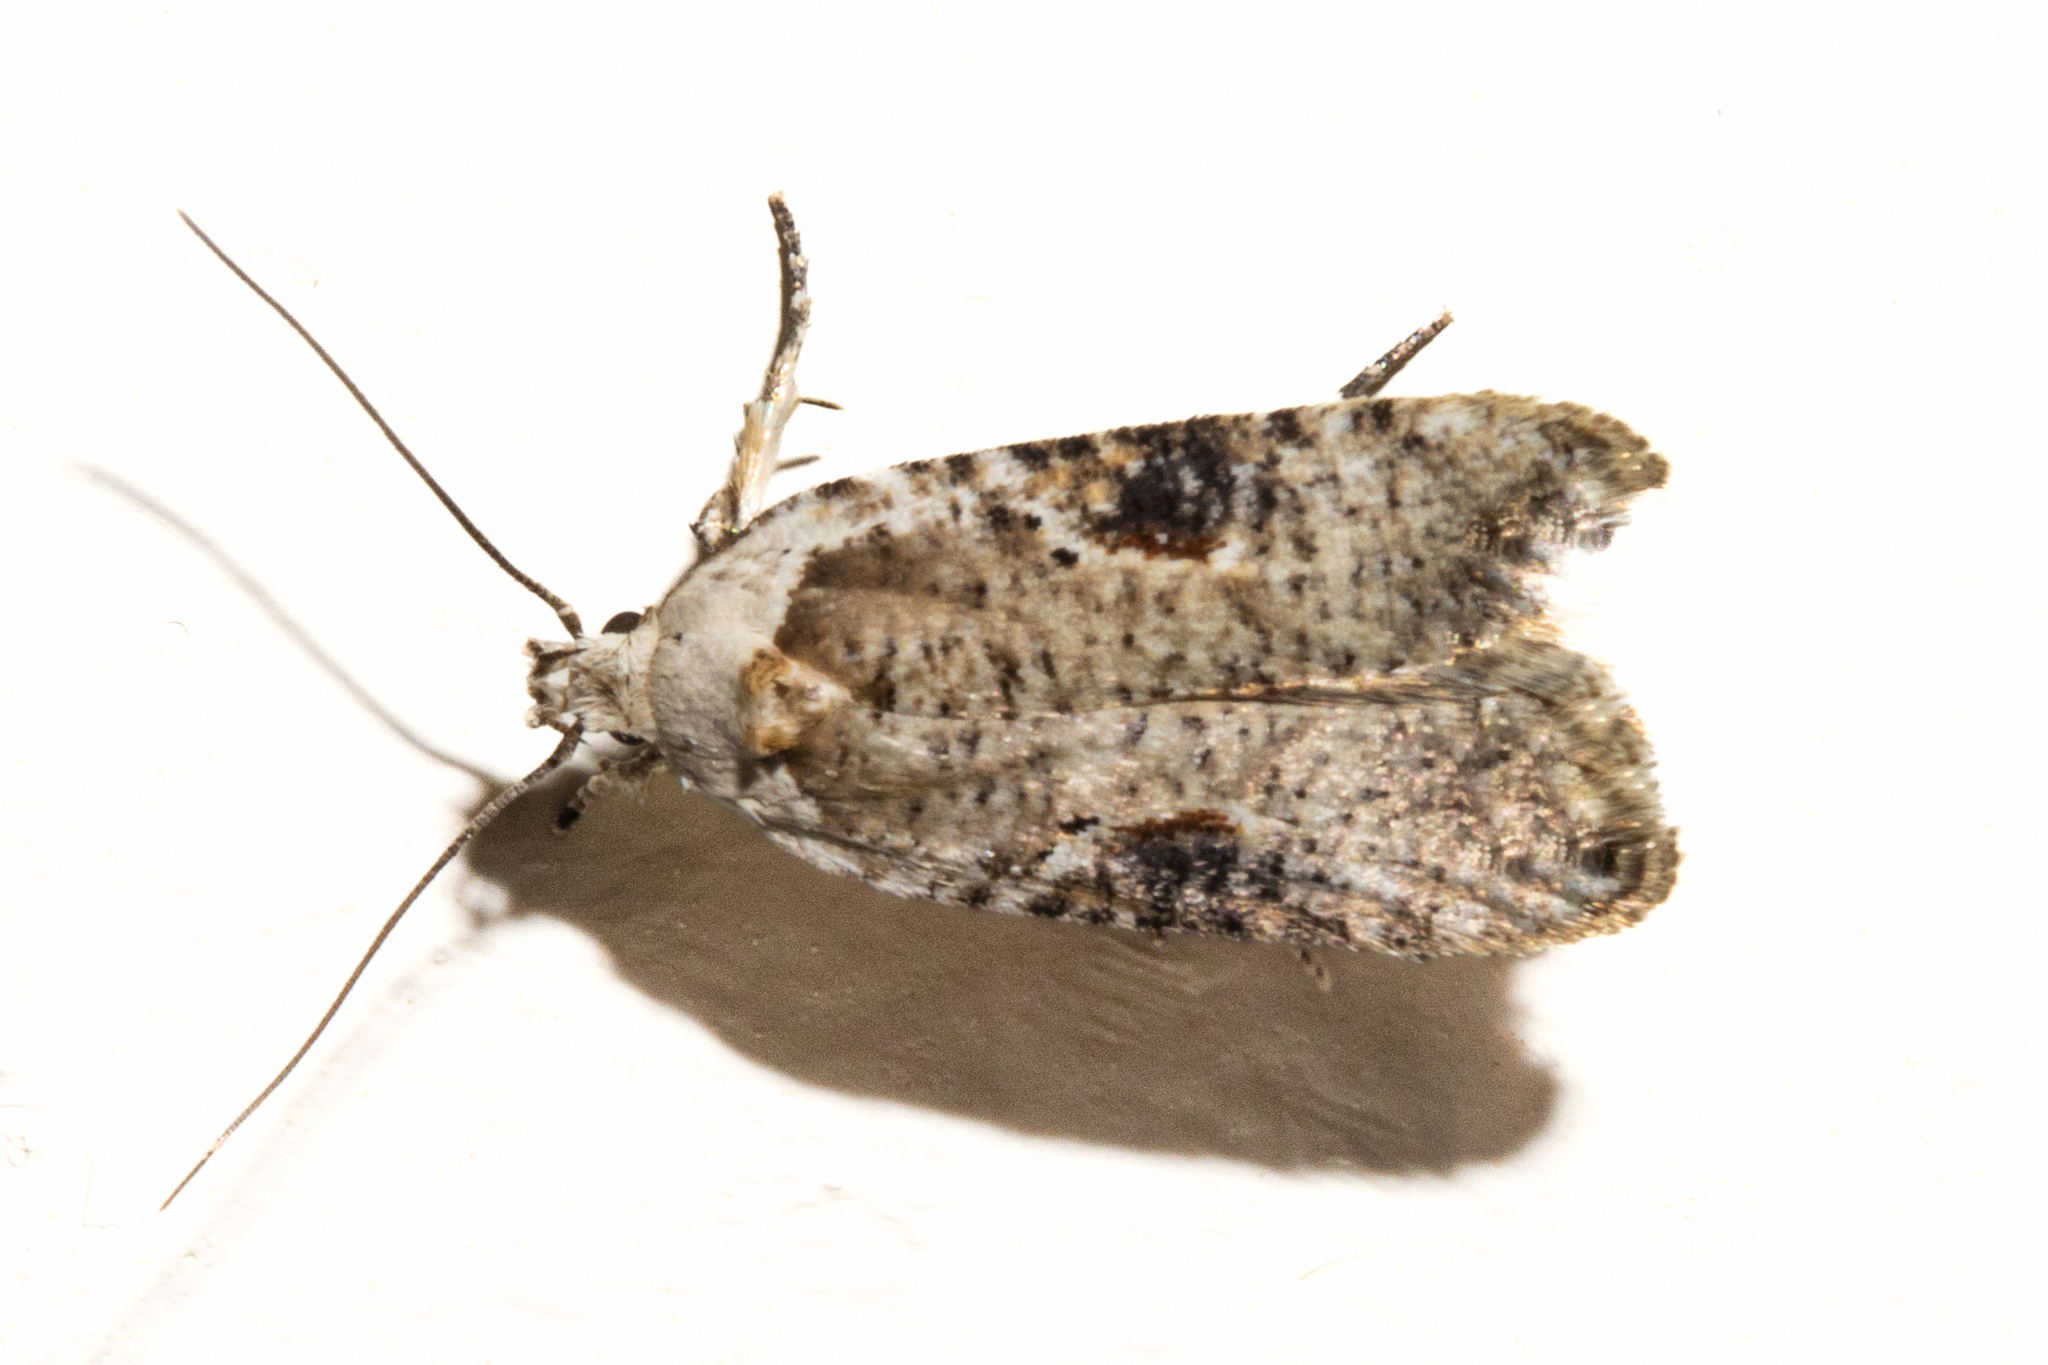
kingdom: Animalia
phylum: Arthropoda
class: Insecta
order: Lepidoptera
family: Depressariidae
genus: Agonopterix
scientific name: Agonopterix alstroemeriana
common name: Moth
